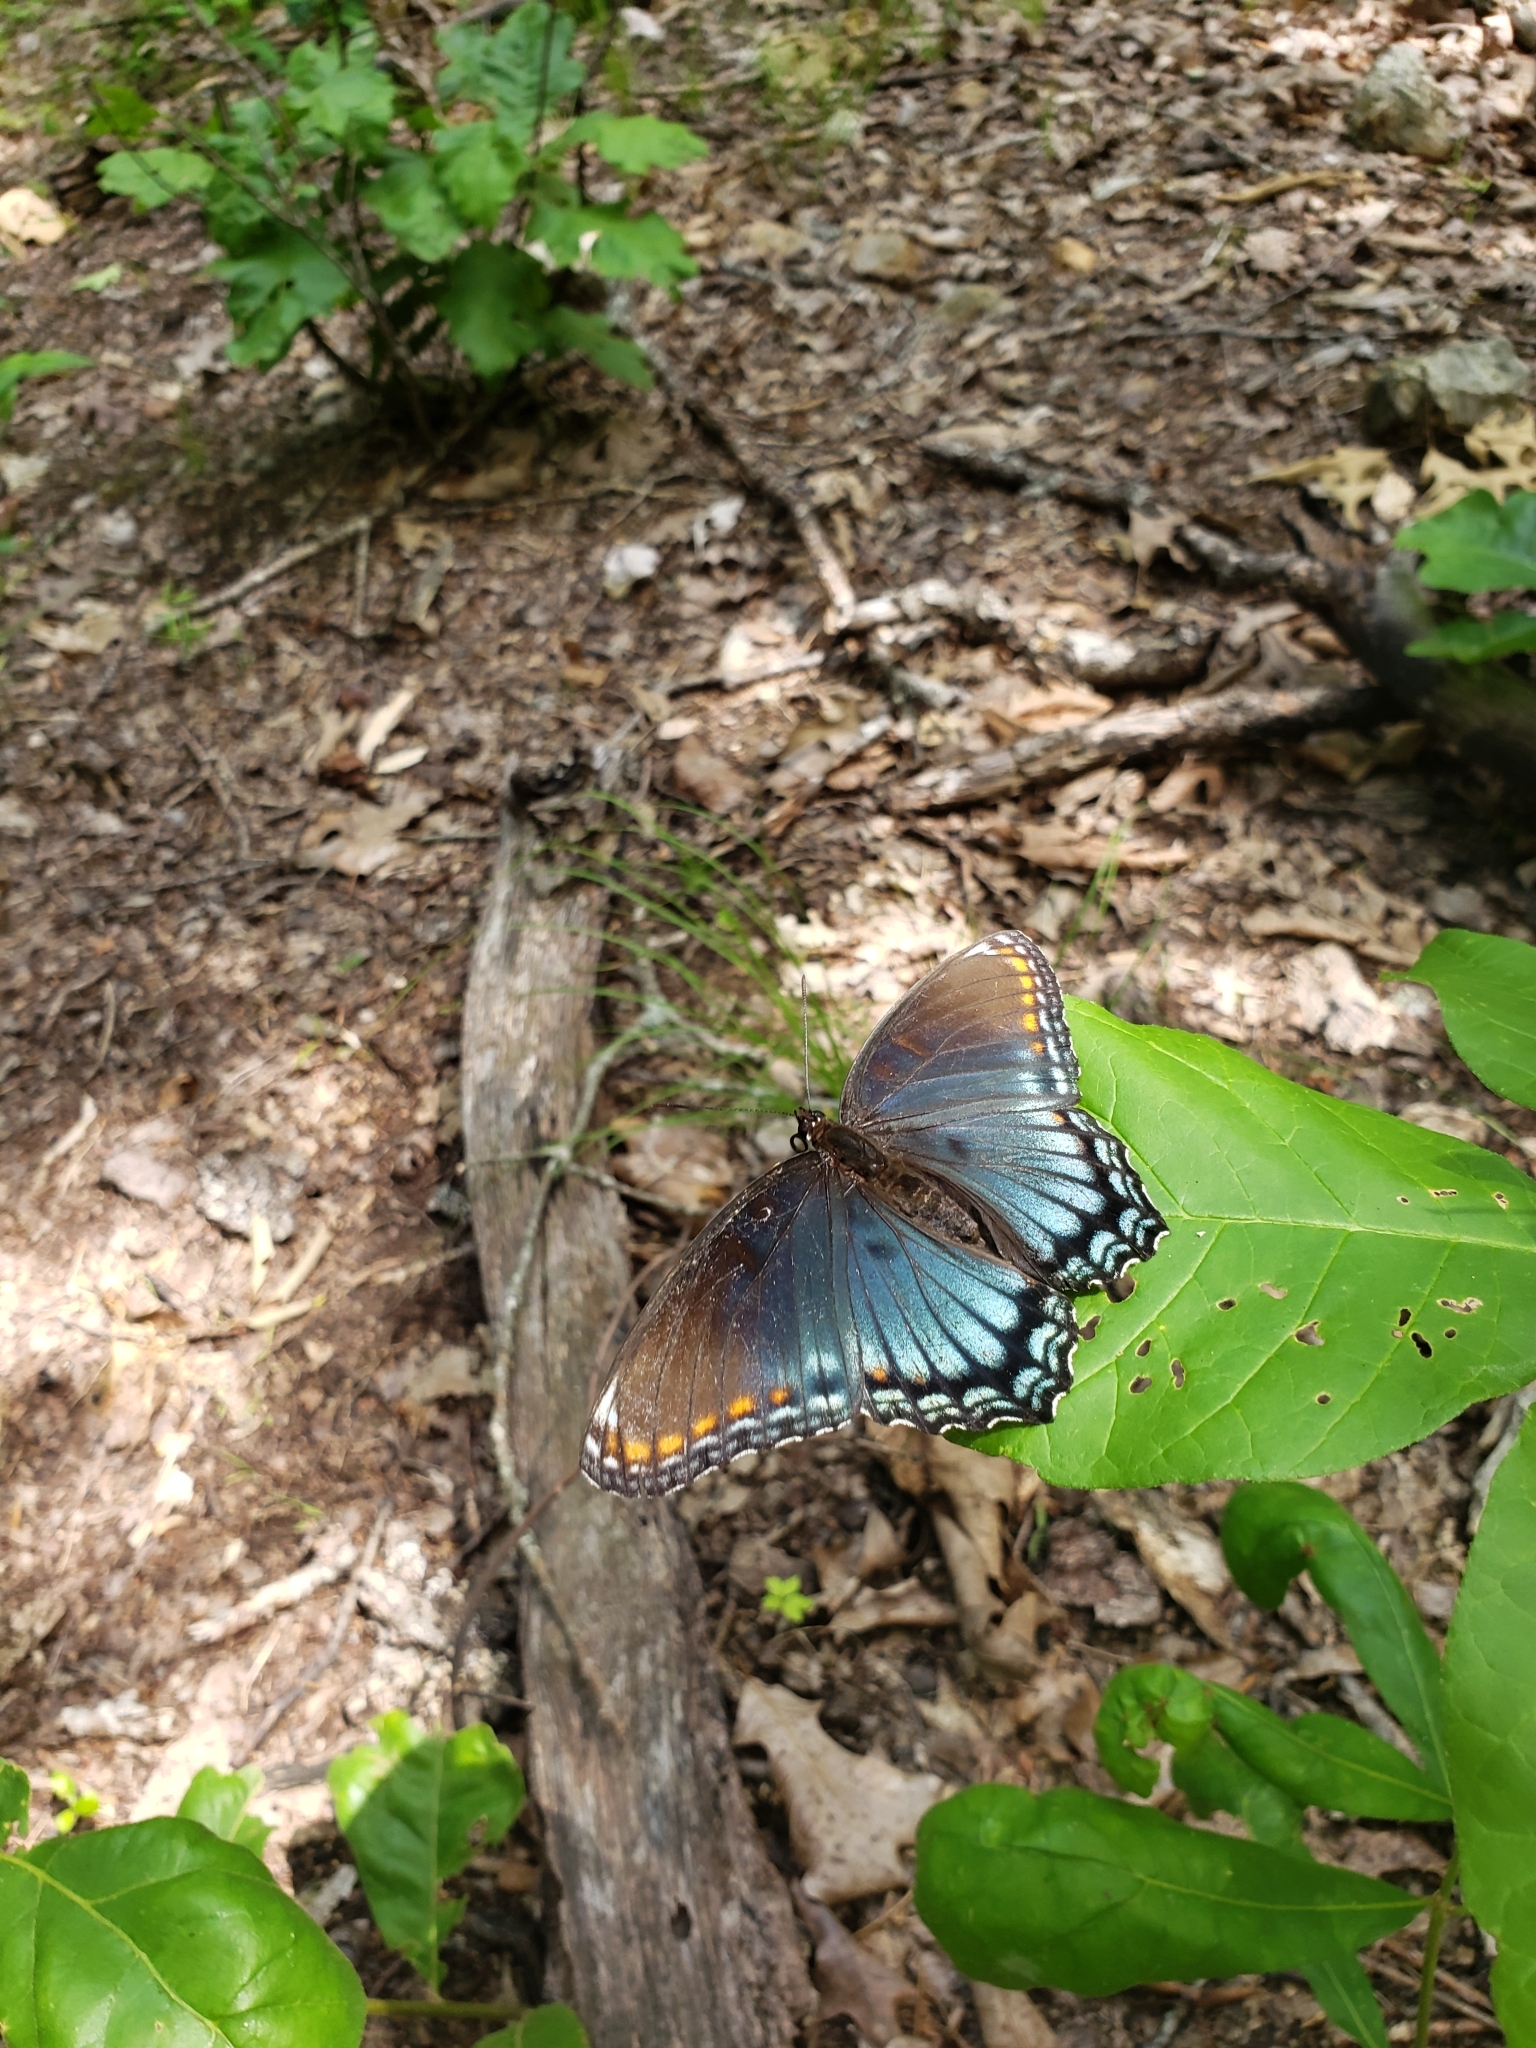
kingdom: Animalia
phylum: Arthropoda
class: Insecta
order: Lepidoptera
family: Nymphalidae
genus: Limenitis
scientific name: Limenitis astyanax
